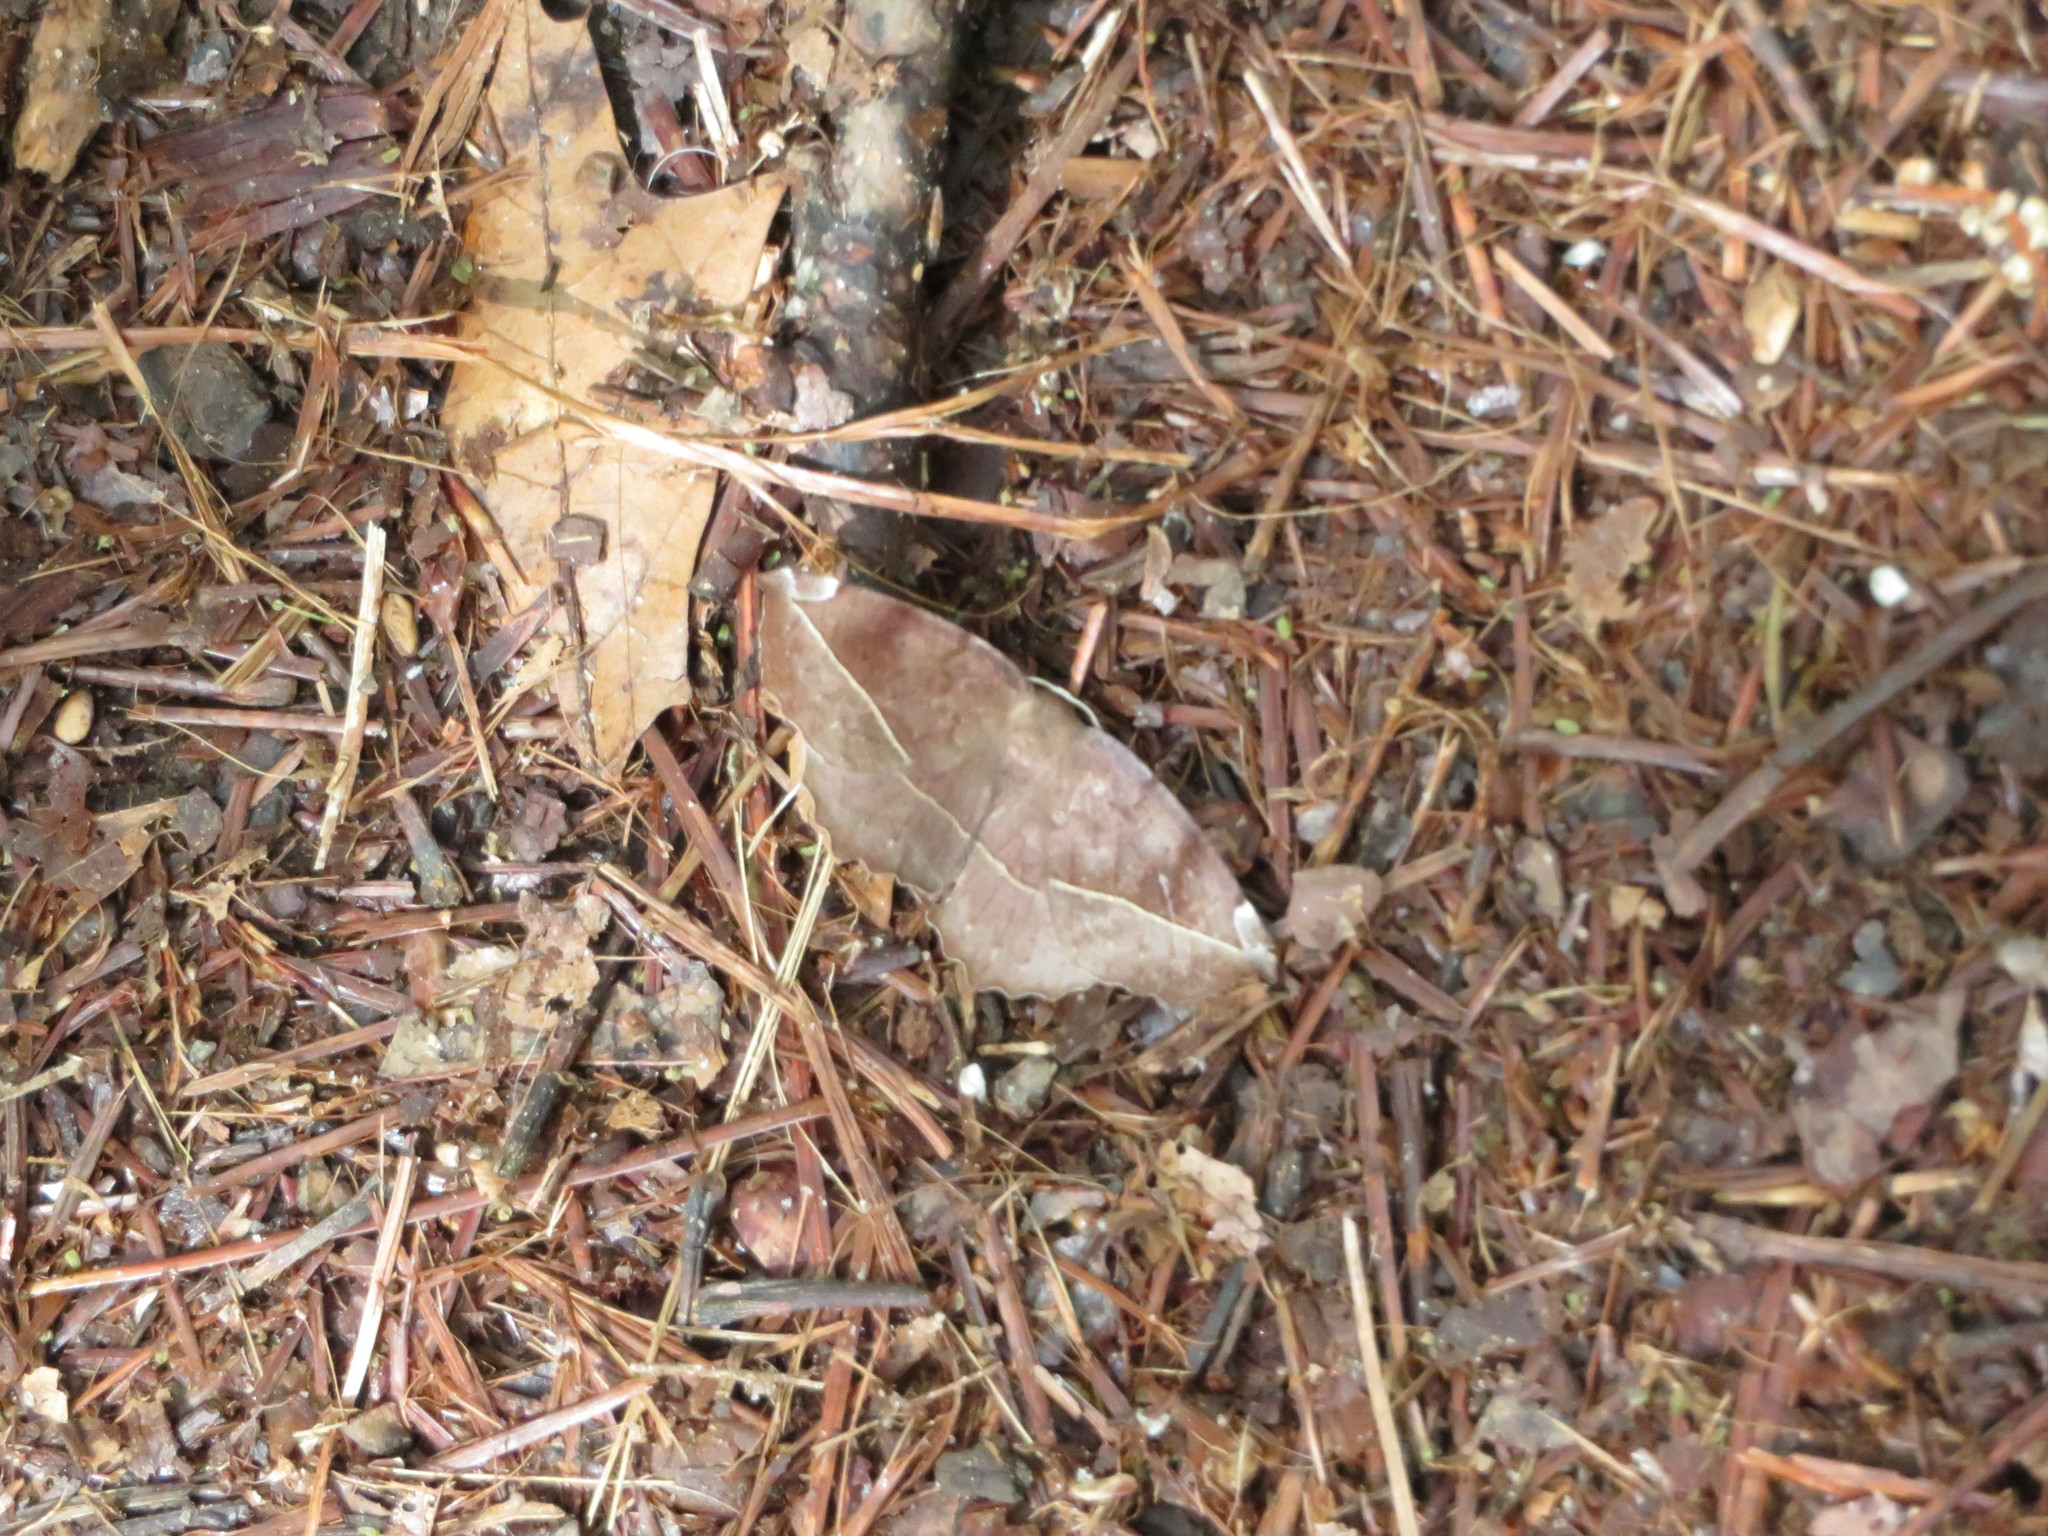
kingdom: Animalia
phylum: Arthropoda
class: Insecta
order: Lepidoptera
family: Geometridae
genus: Eutrapela
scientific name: Eutrapela clemataria
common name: Curved-toothed geometer
